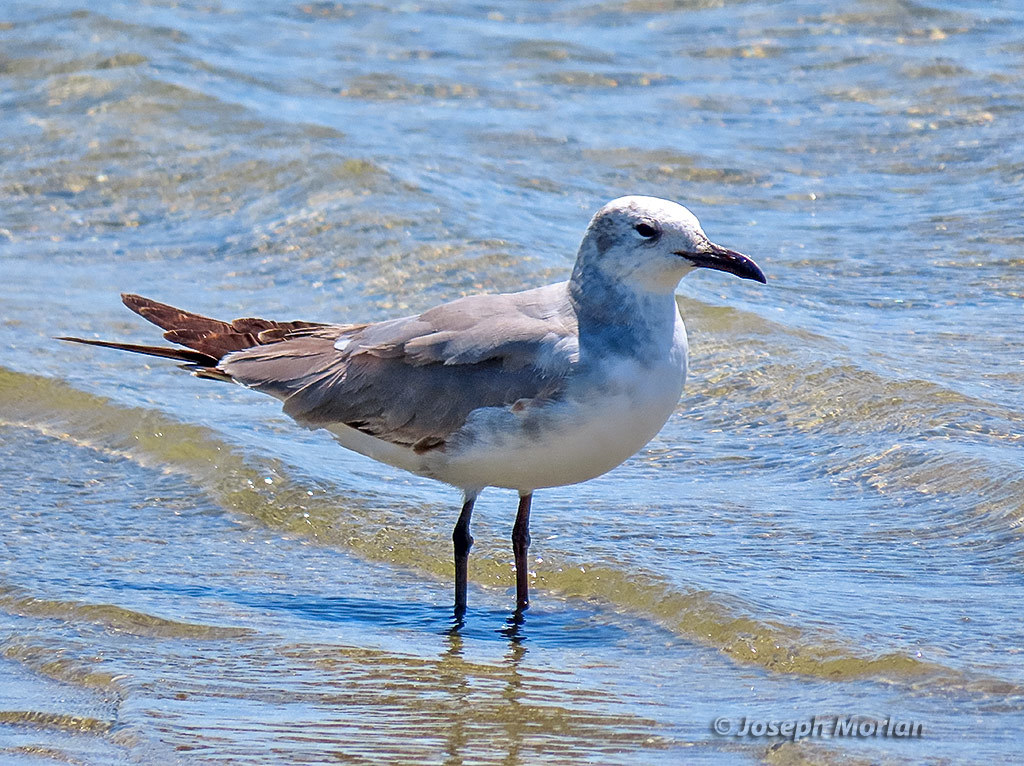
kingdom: Animalia
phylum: Chordata
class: Aves
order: Charadriiformes
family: Laridae
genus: Leucophaeus
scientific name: Leucophaeus atricilla
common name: Laughing gull
